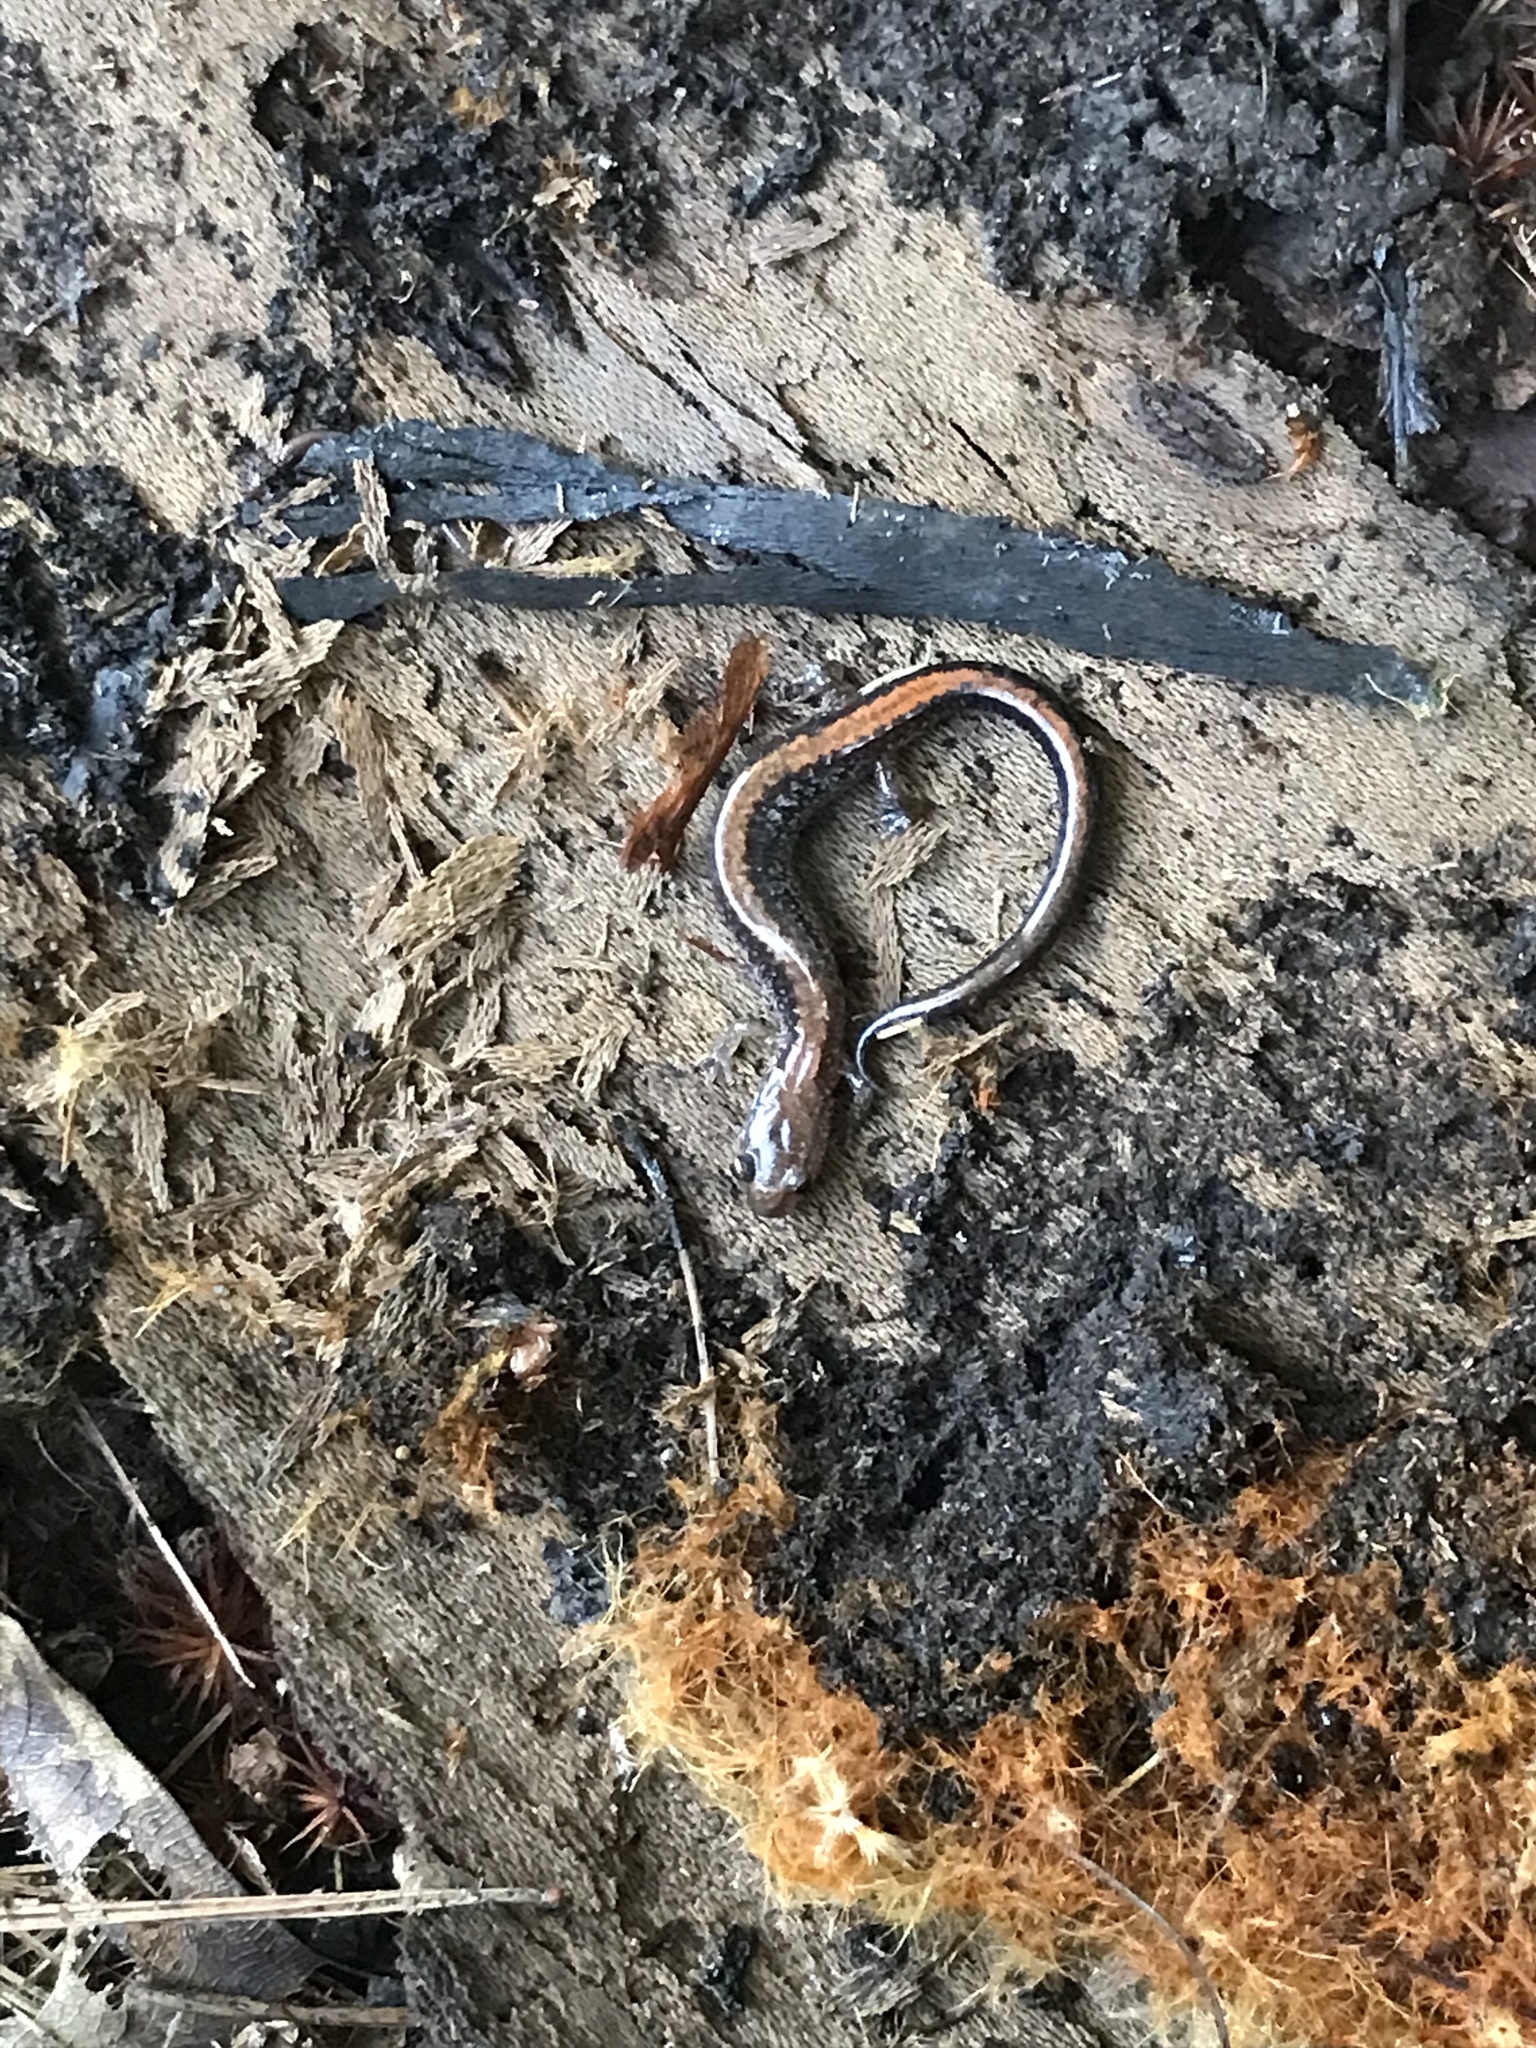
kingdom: Animalia
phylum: Chordata
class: Amphibia
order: Caudata
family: Plethodontidae
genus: Plethodon
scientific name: Plethodon cinereus
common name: Redback salamander
